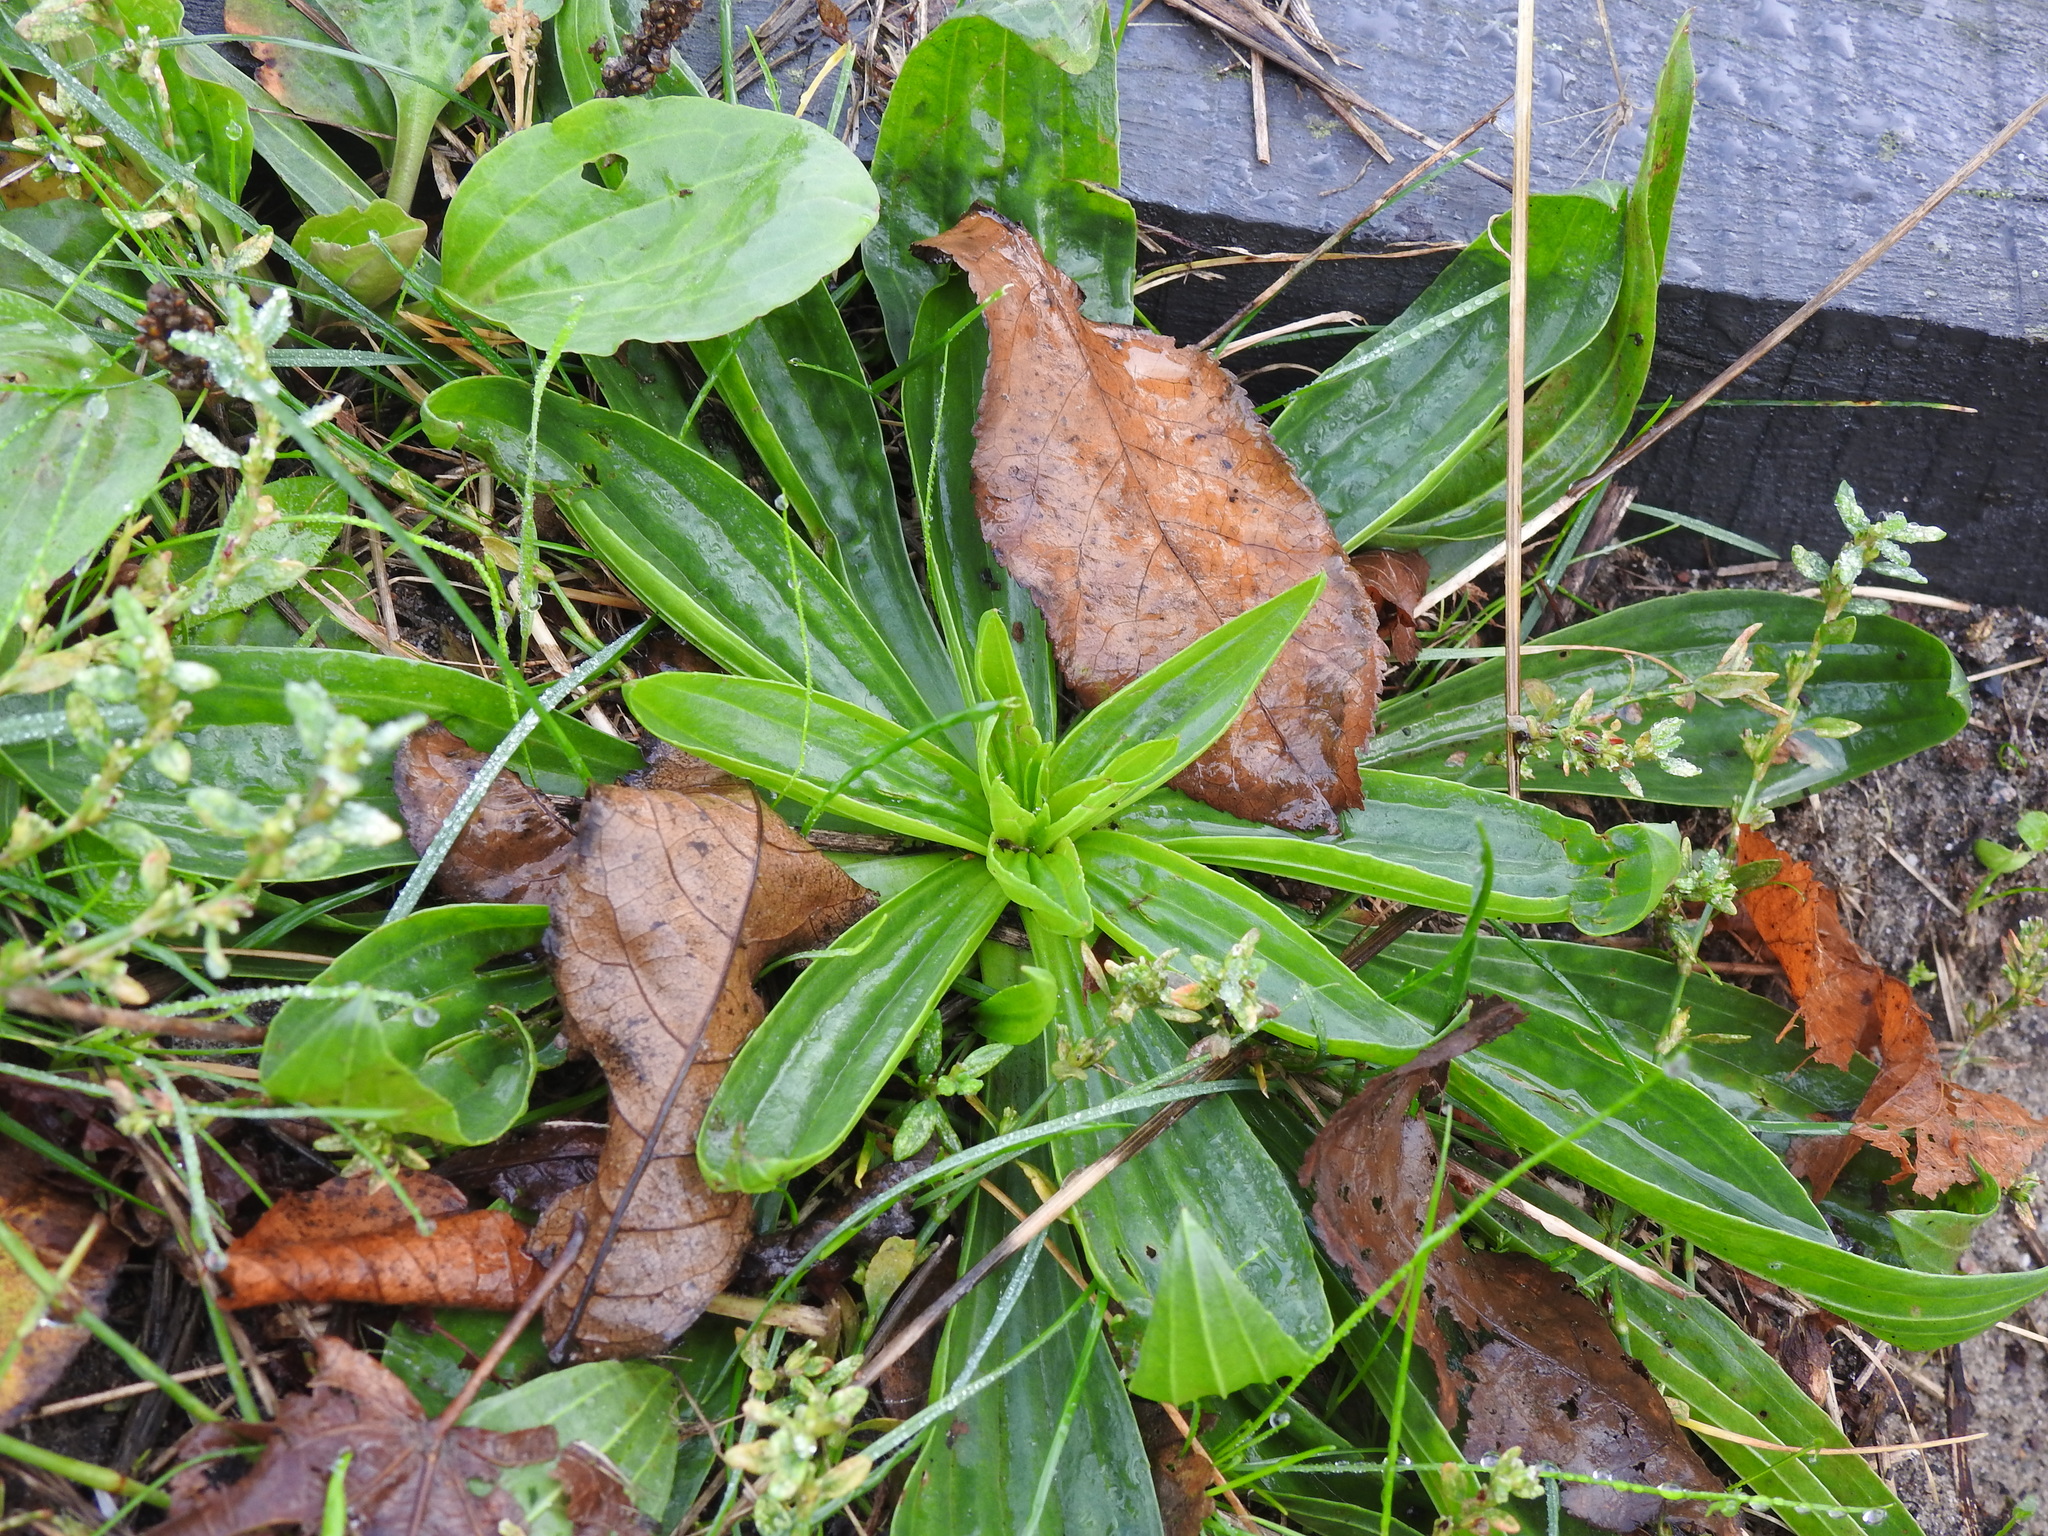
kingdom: Plantae
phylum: Tracheophyta
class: Magnoliopsida
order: Lamiales
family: Plantaginaceae
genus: Plantago
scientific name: Plantago lanceolata
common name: Ribwort plantain
